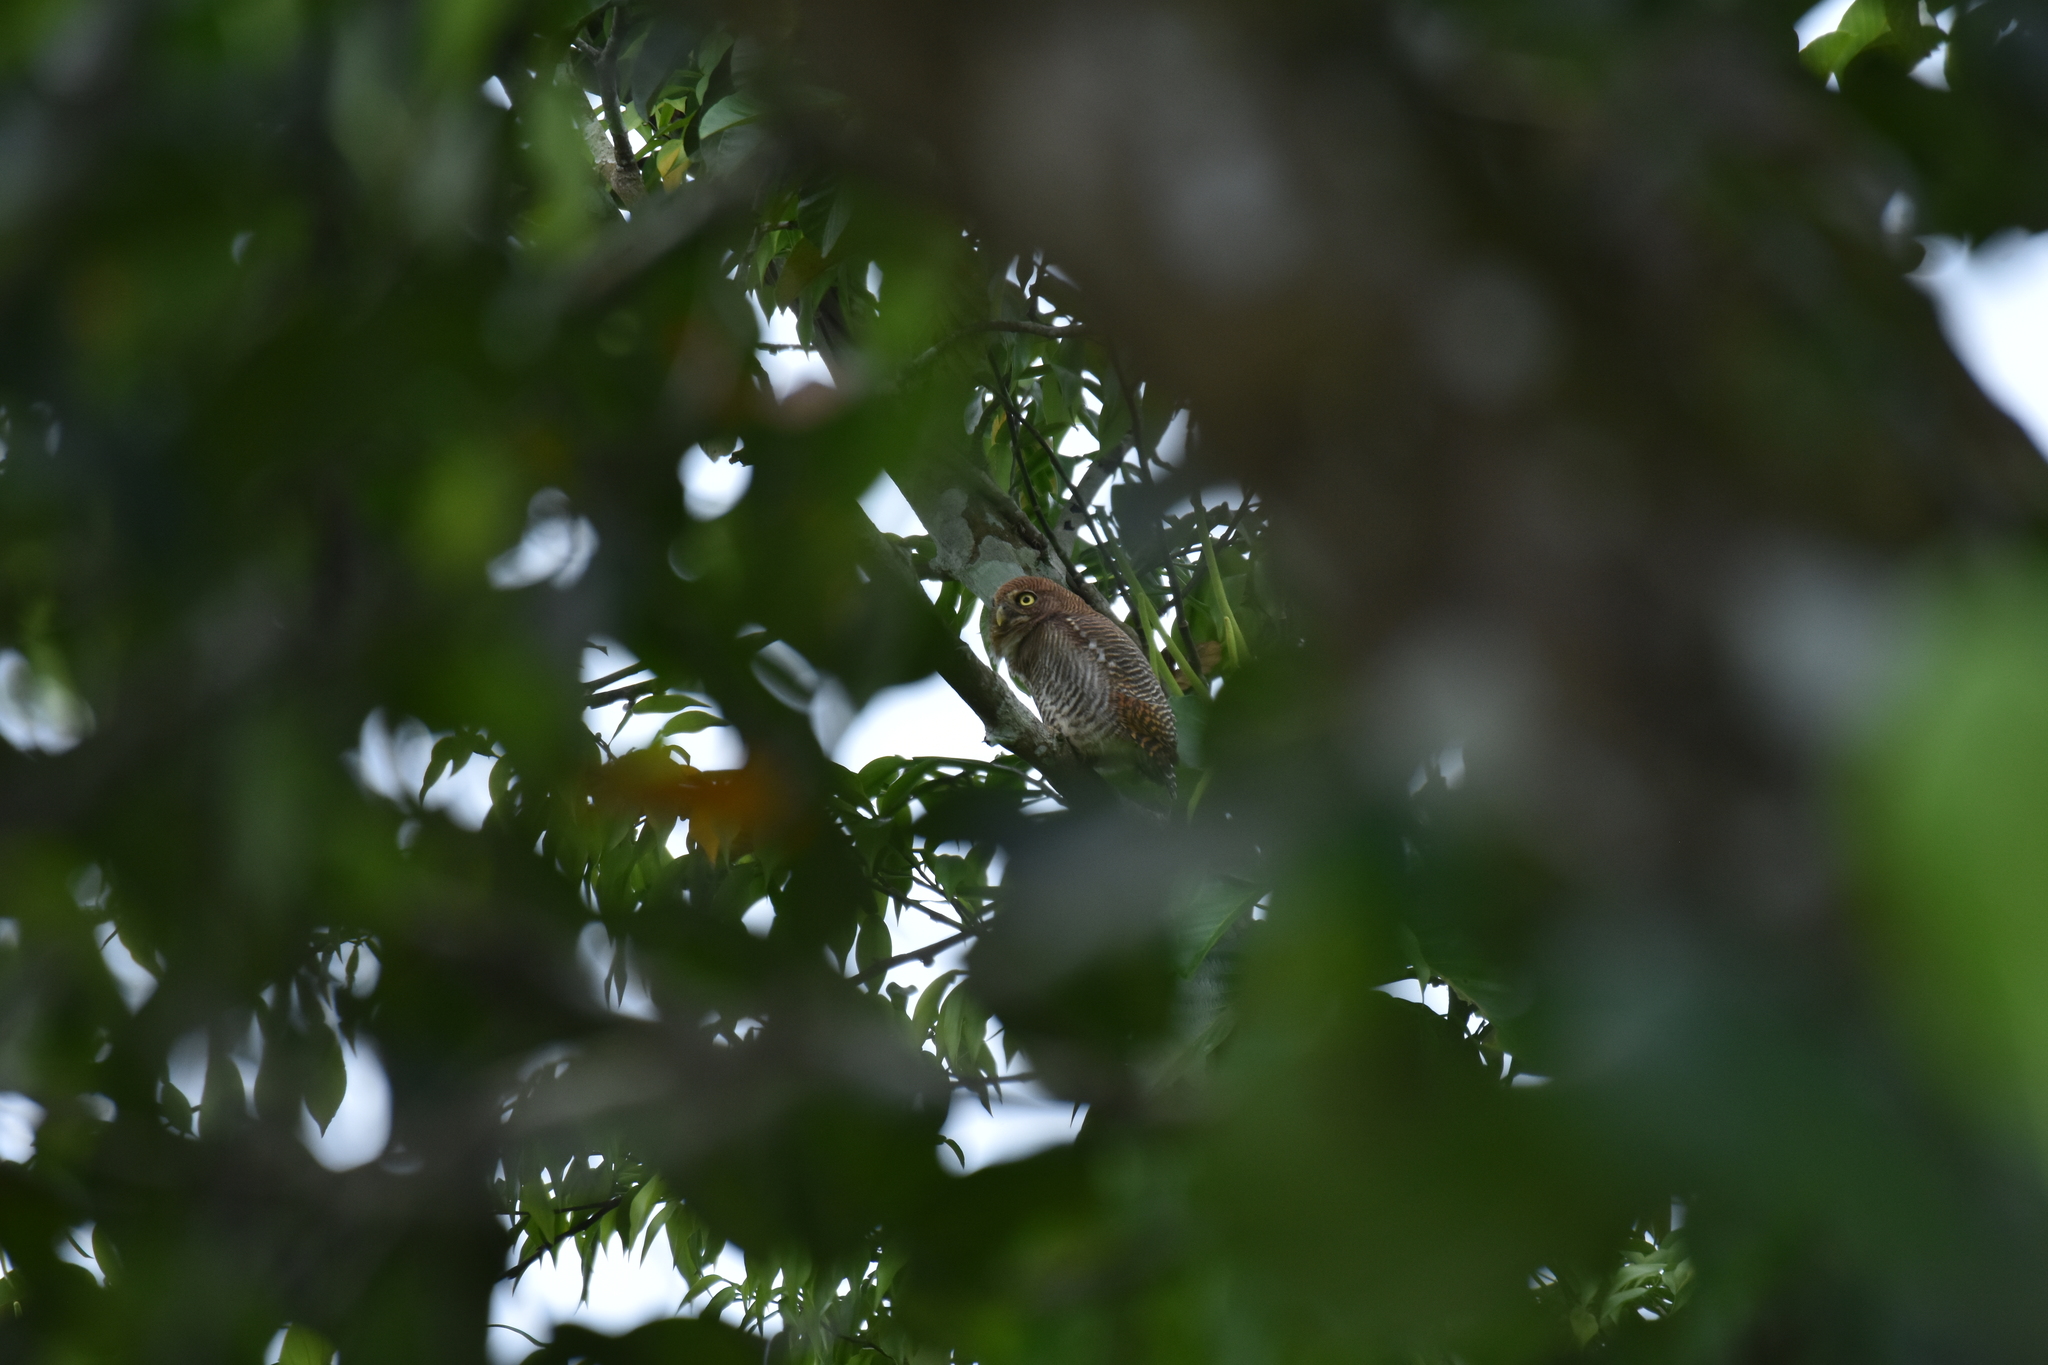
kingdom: Animalia
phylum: Chordata
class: Aves
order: Strigiformes
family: Strigidae
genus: Glaucidium
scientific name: Glaucidium radiatum
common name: Jungle owlet
